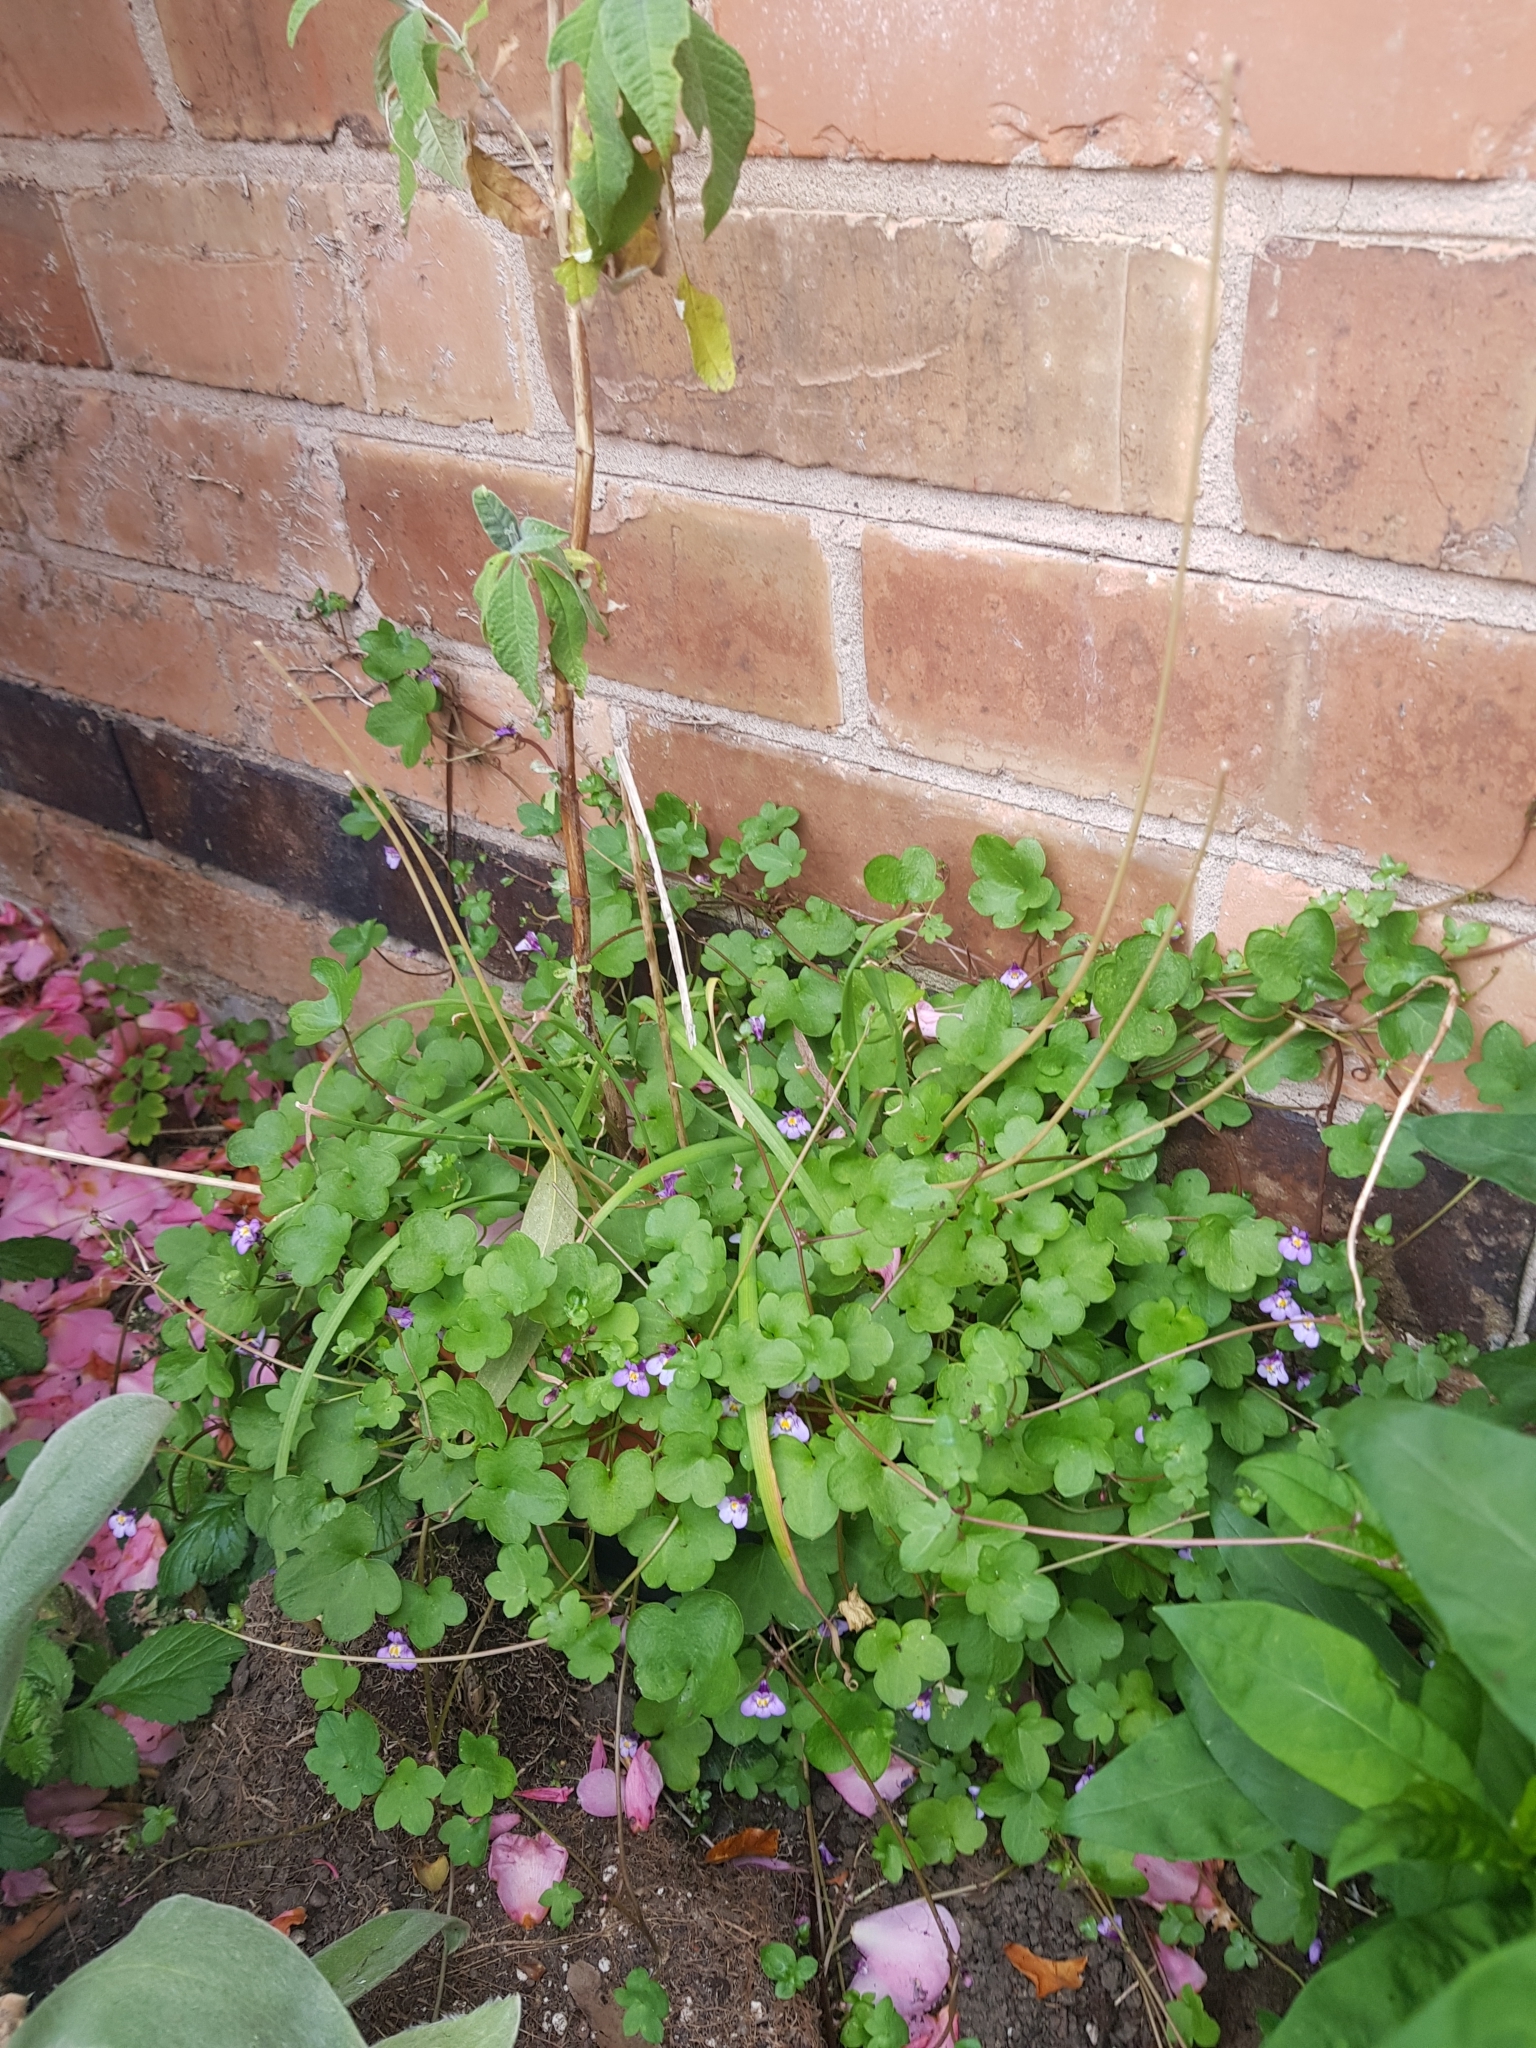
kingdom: Plantae
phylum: Tracheophyta
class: Magnoliopsida
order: Lamiales
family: Plantaginaceae
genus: Cymbalaria
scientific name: Cymbalaria muralis
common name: Ivy-leaved toadflax
